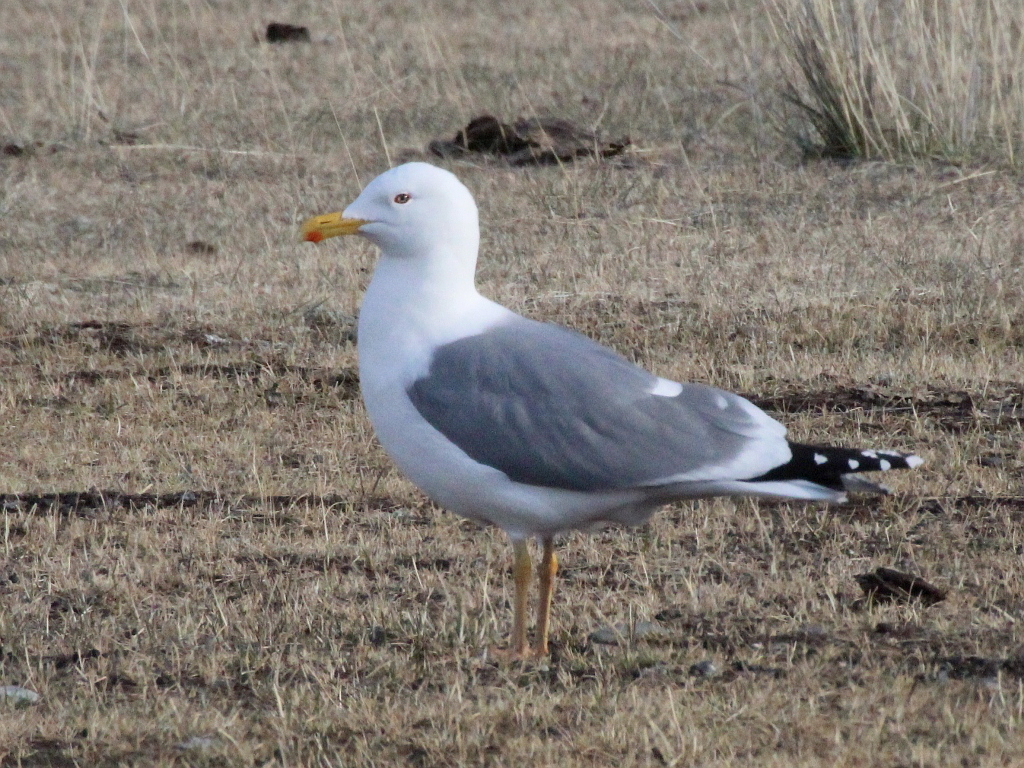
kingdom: Animalia
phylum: Chordata
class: Aves
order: Charadriiformes
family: Laridae
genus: Larus
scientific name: Larus vegae
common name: Vega gull
